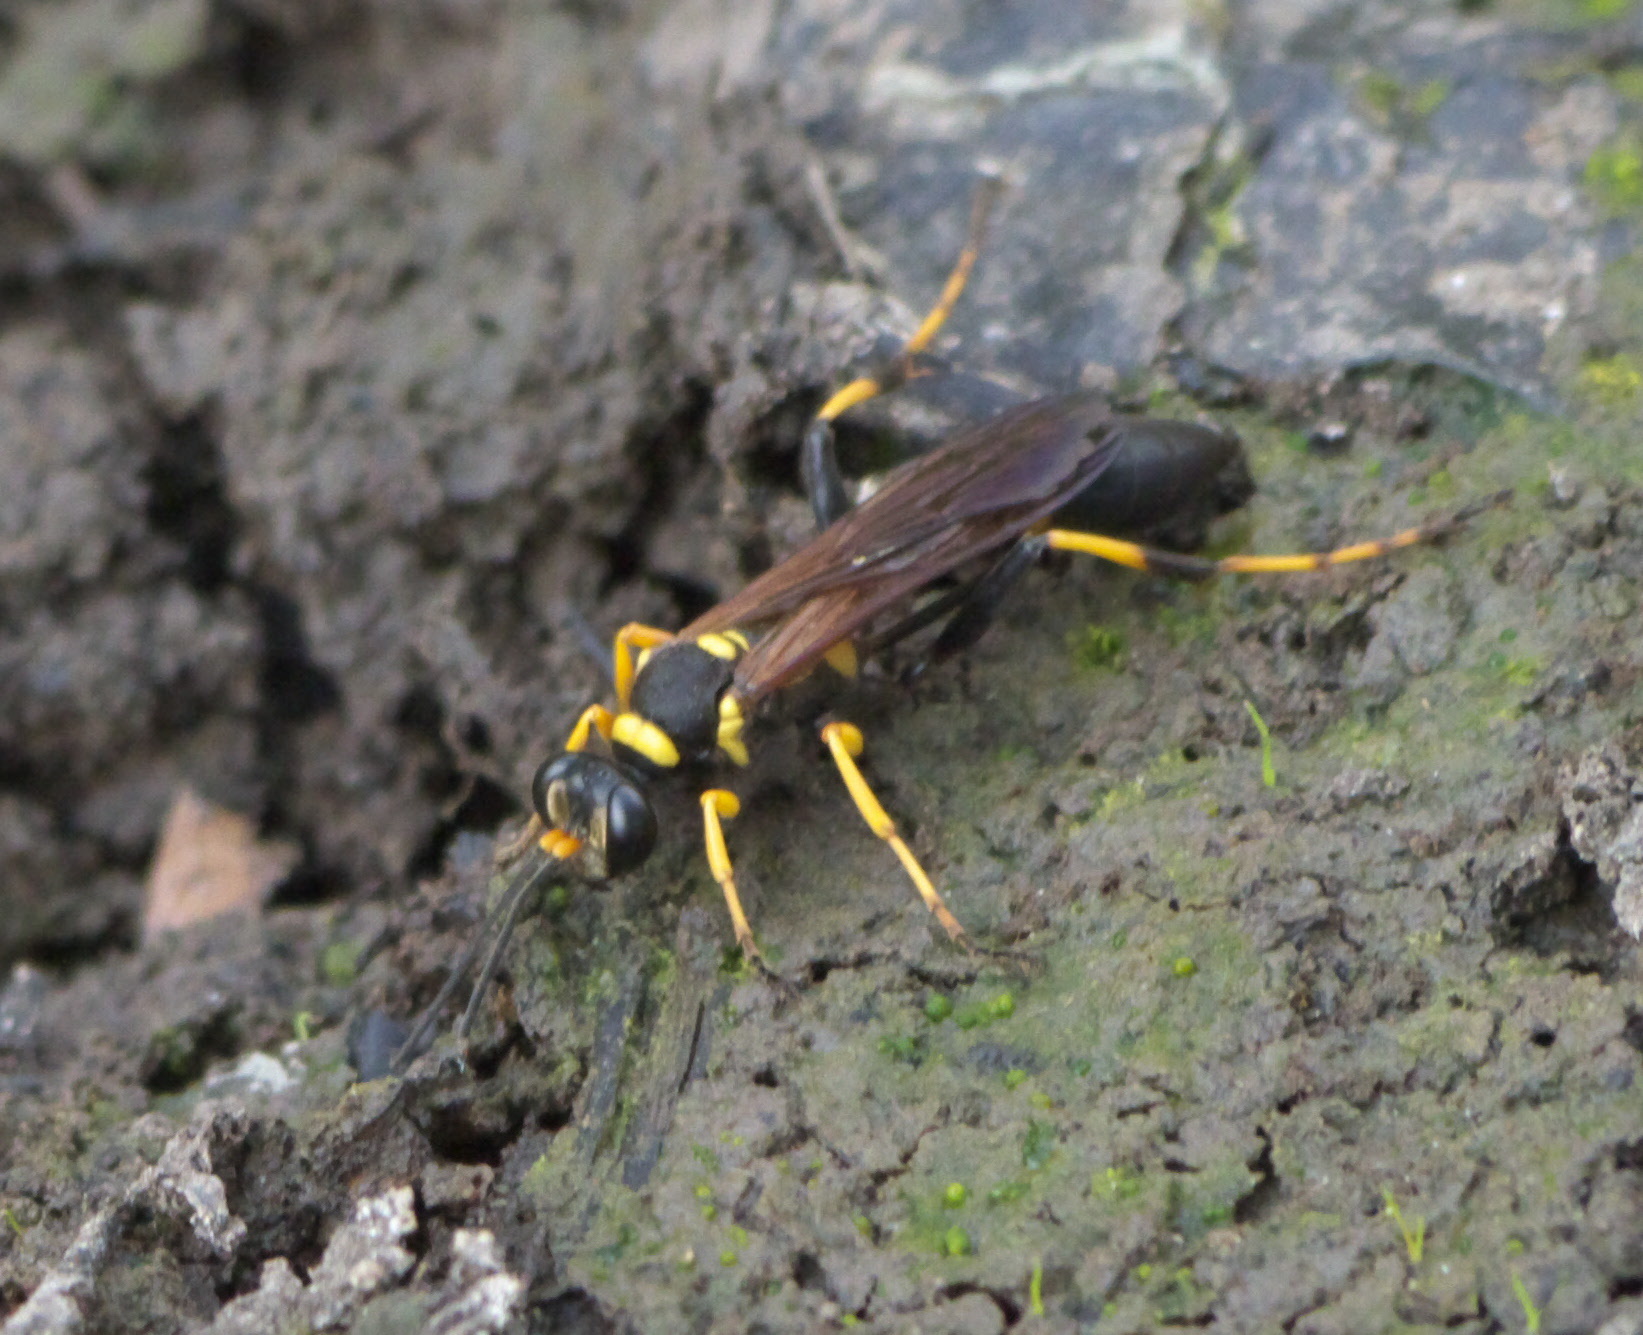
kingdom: Animalia
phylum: Arthropoda
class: Insecta
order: Hymenoptera
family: Sphecidae
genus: Sceliphron
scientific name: Sceliphron caementarium
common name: Mud dauber
